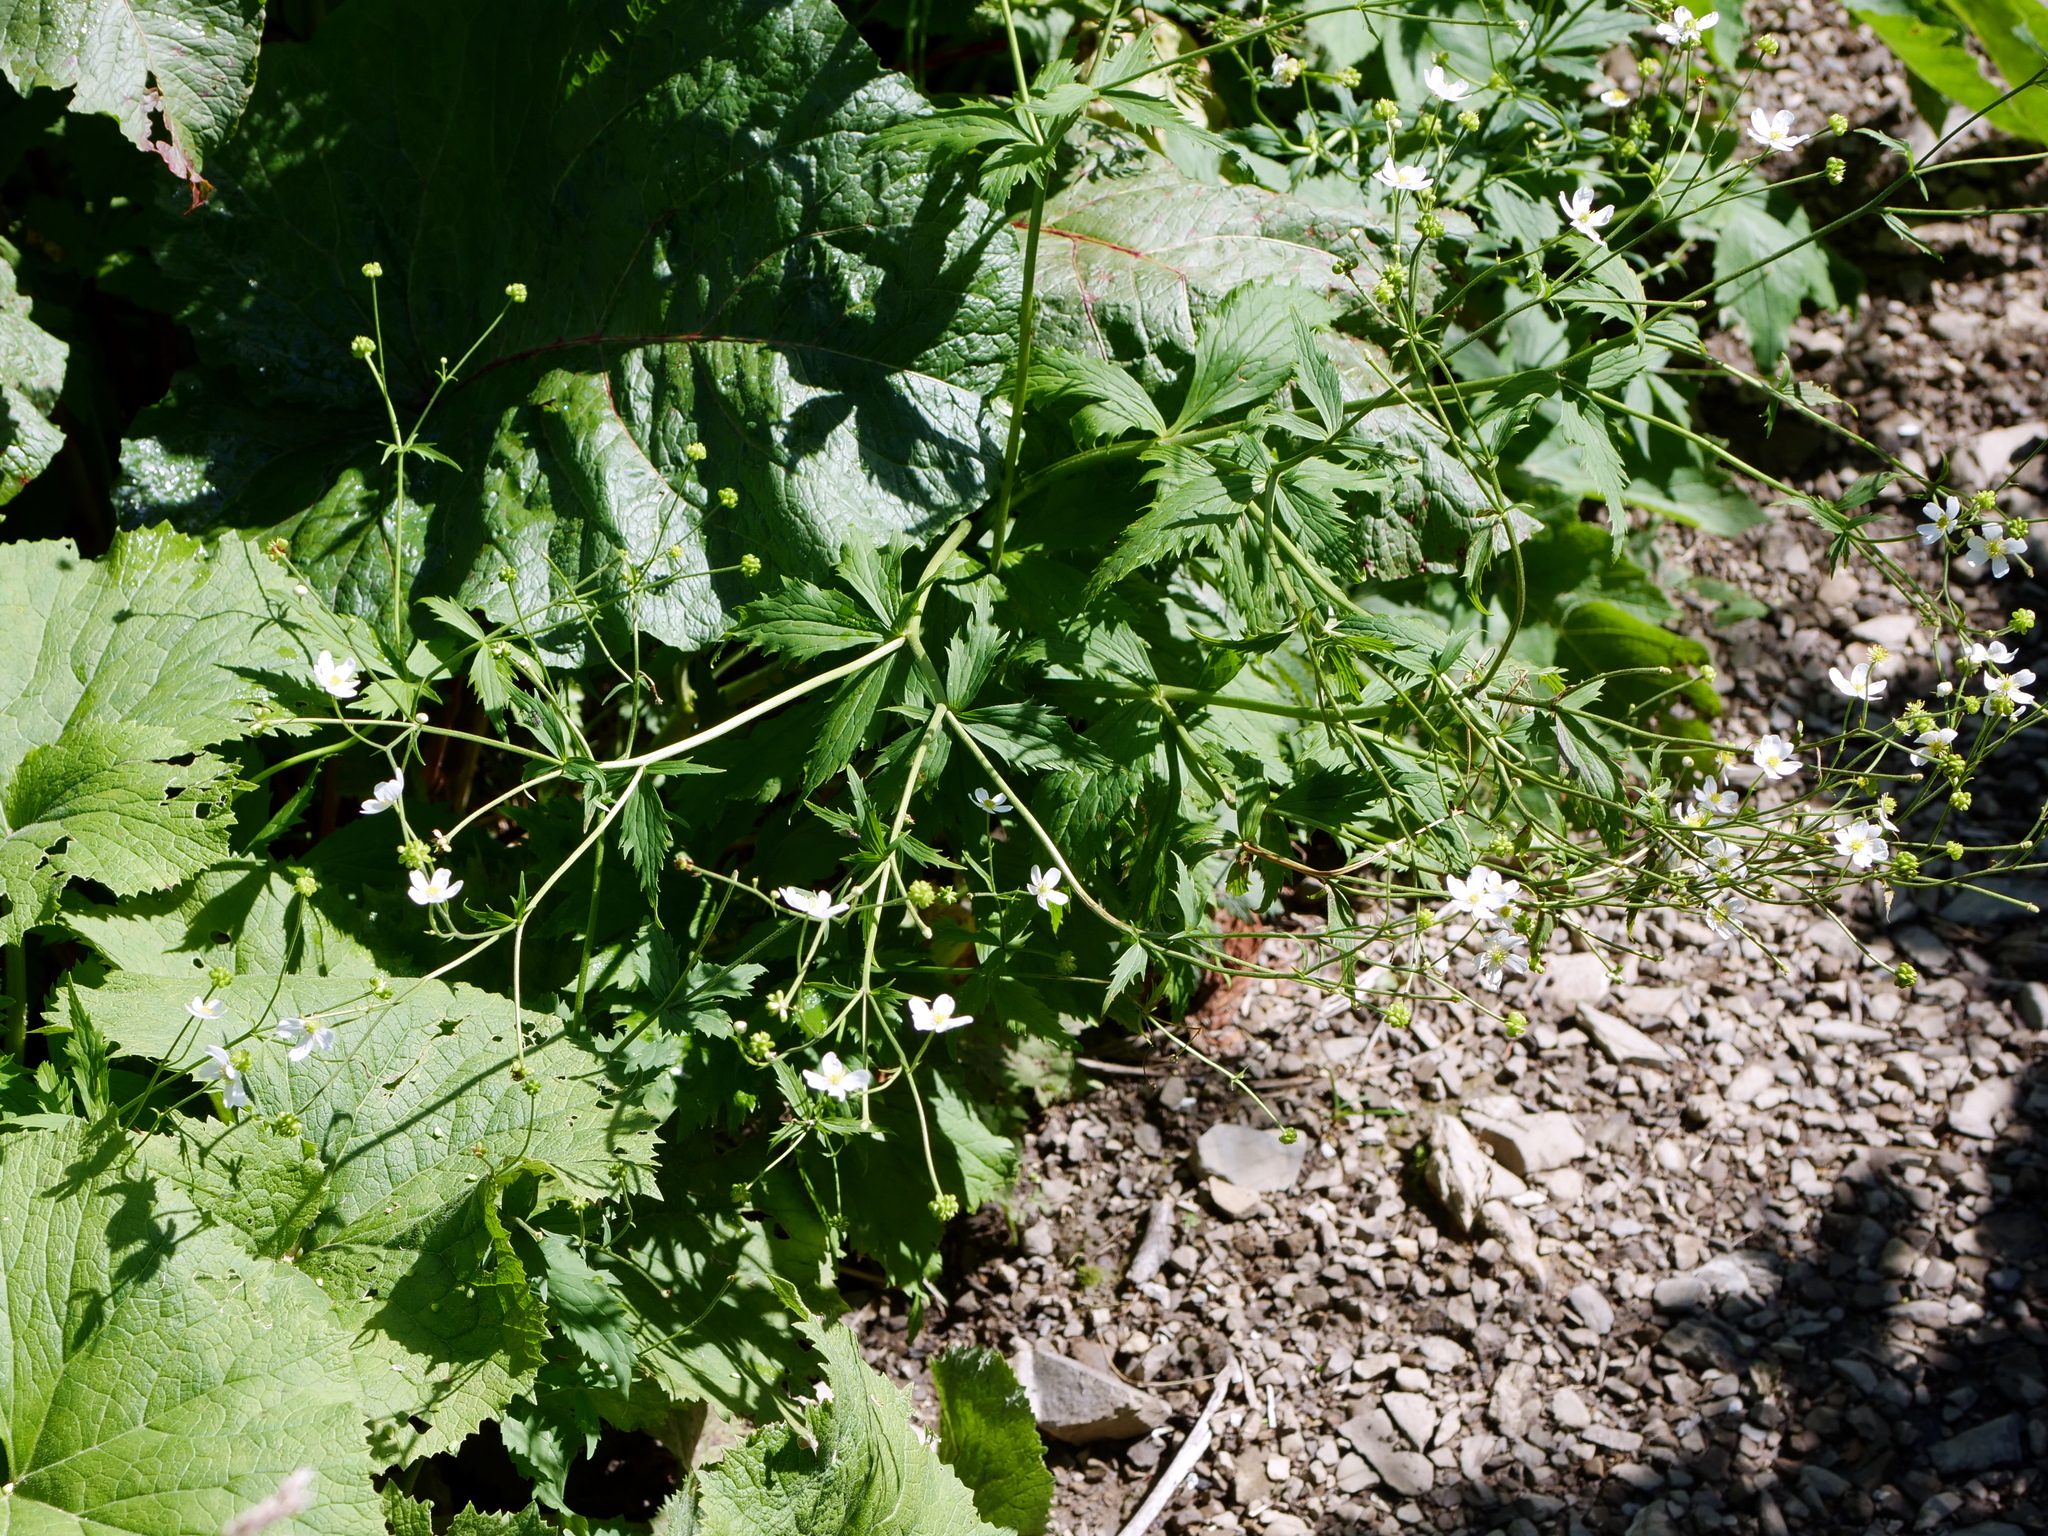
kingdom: Plantae
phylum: Tracheophyta
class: Magnoliopsida
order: Ranunculales
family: Ranunculaceae
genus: Ranunculus
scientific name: Ranunculus aconitifolius
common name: Aconite-leaved buttercup
